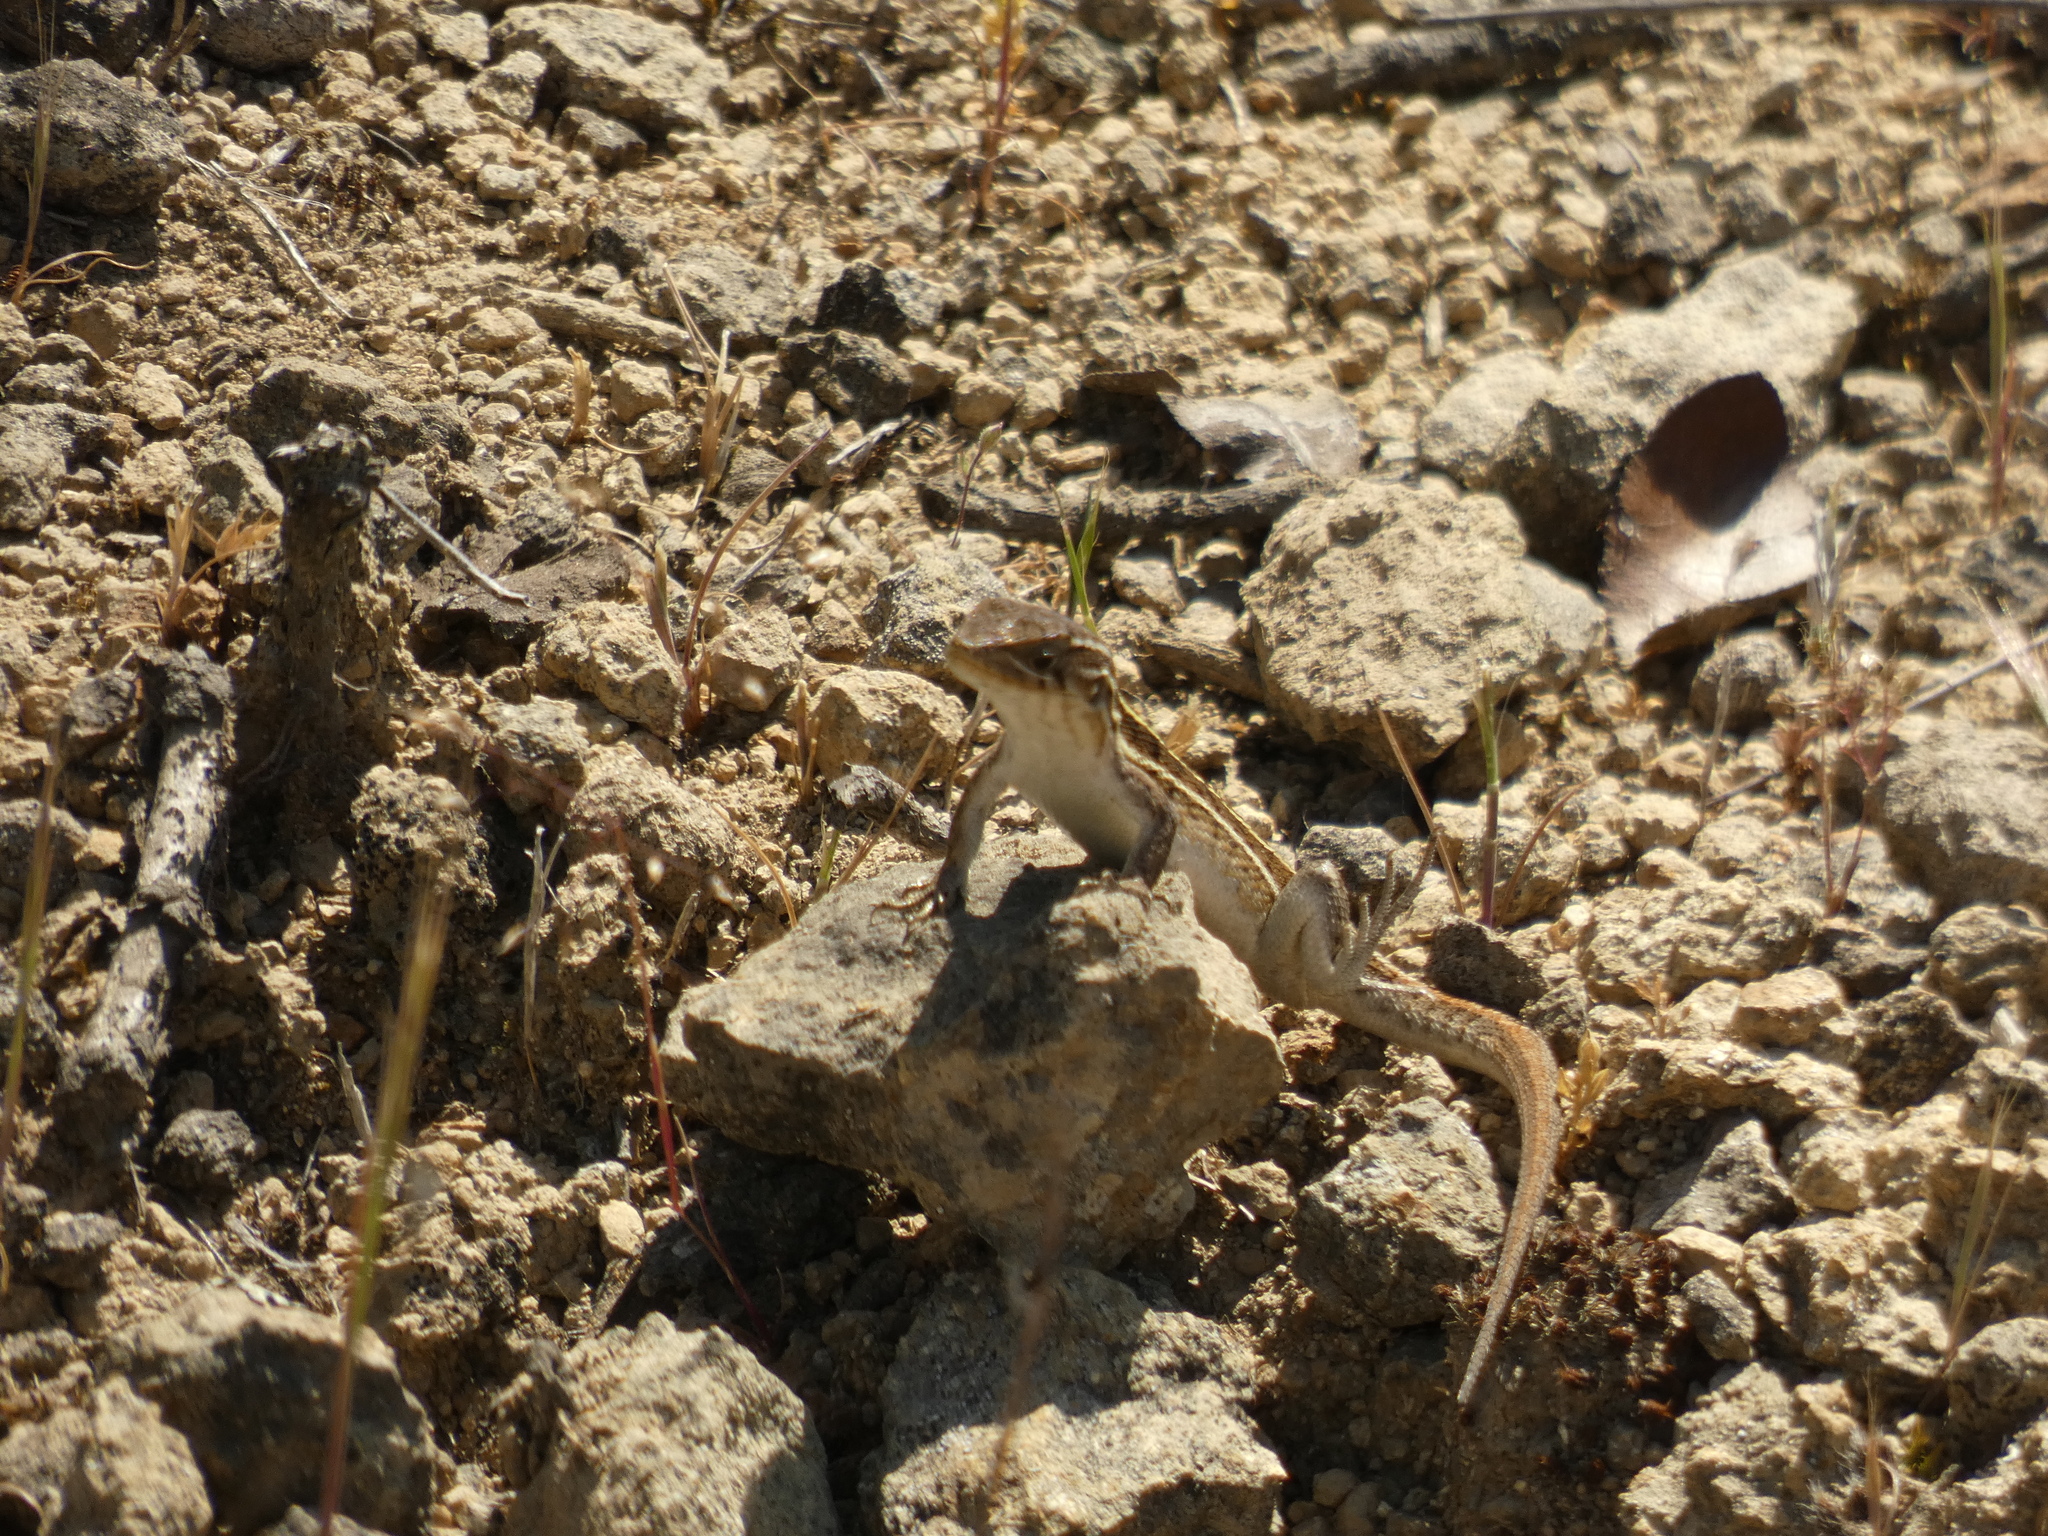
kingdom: Animalia
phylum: Chordata
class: Squamata
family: Liolaemidae
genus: Liolaemus
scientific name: Liolaemus lemniscatus
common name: Wreath tree iguana
